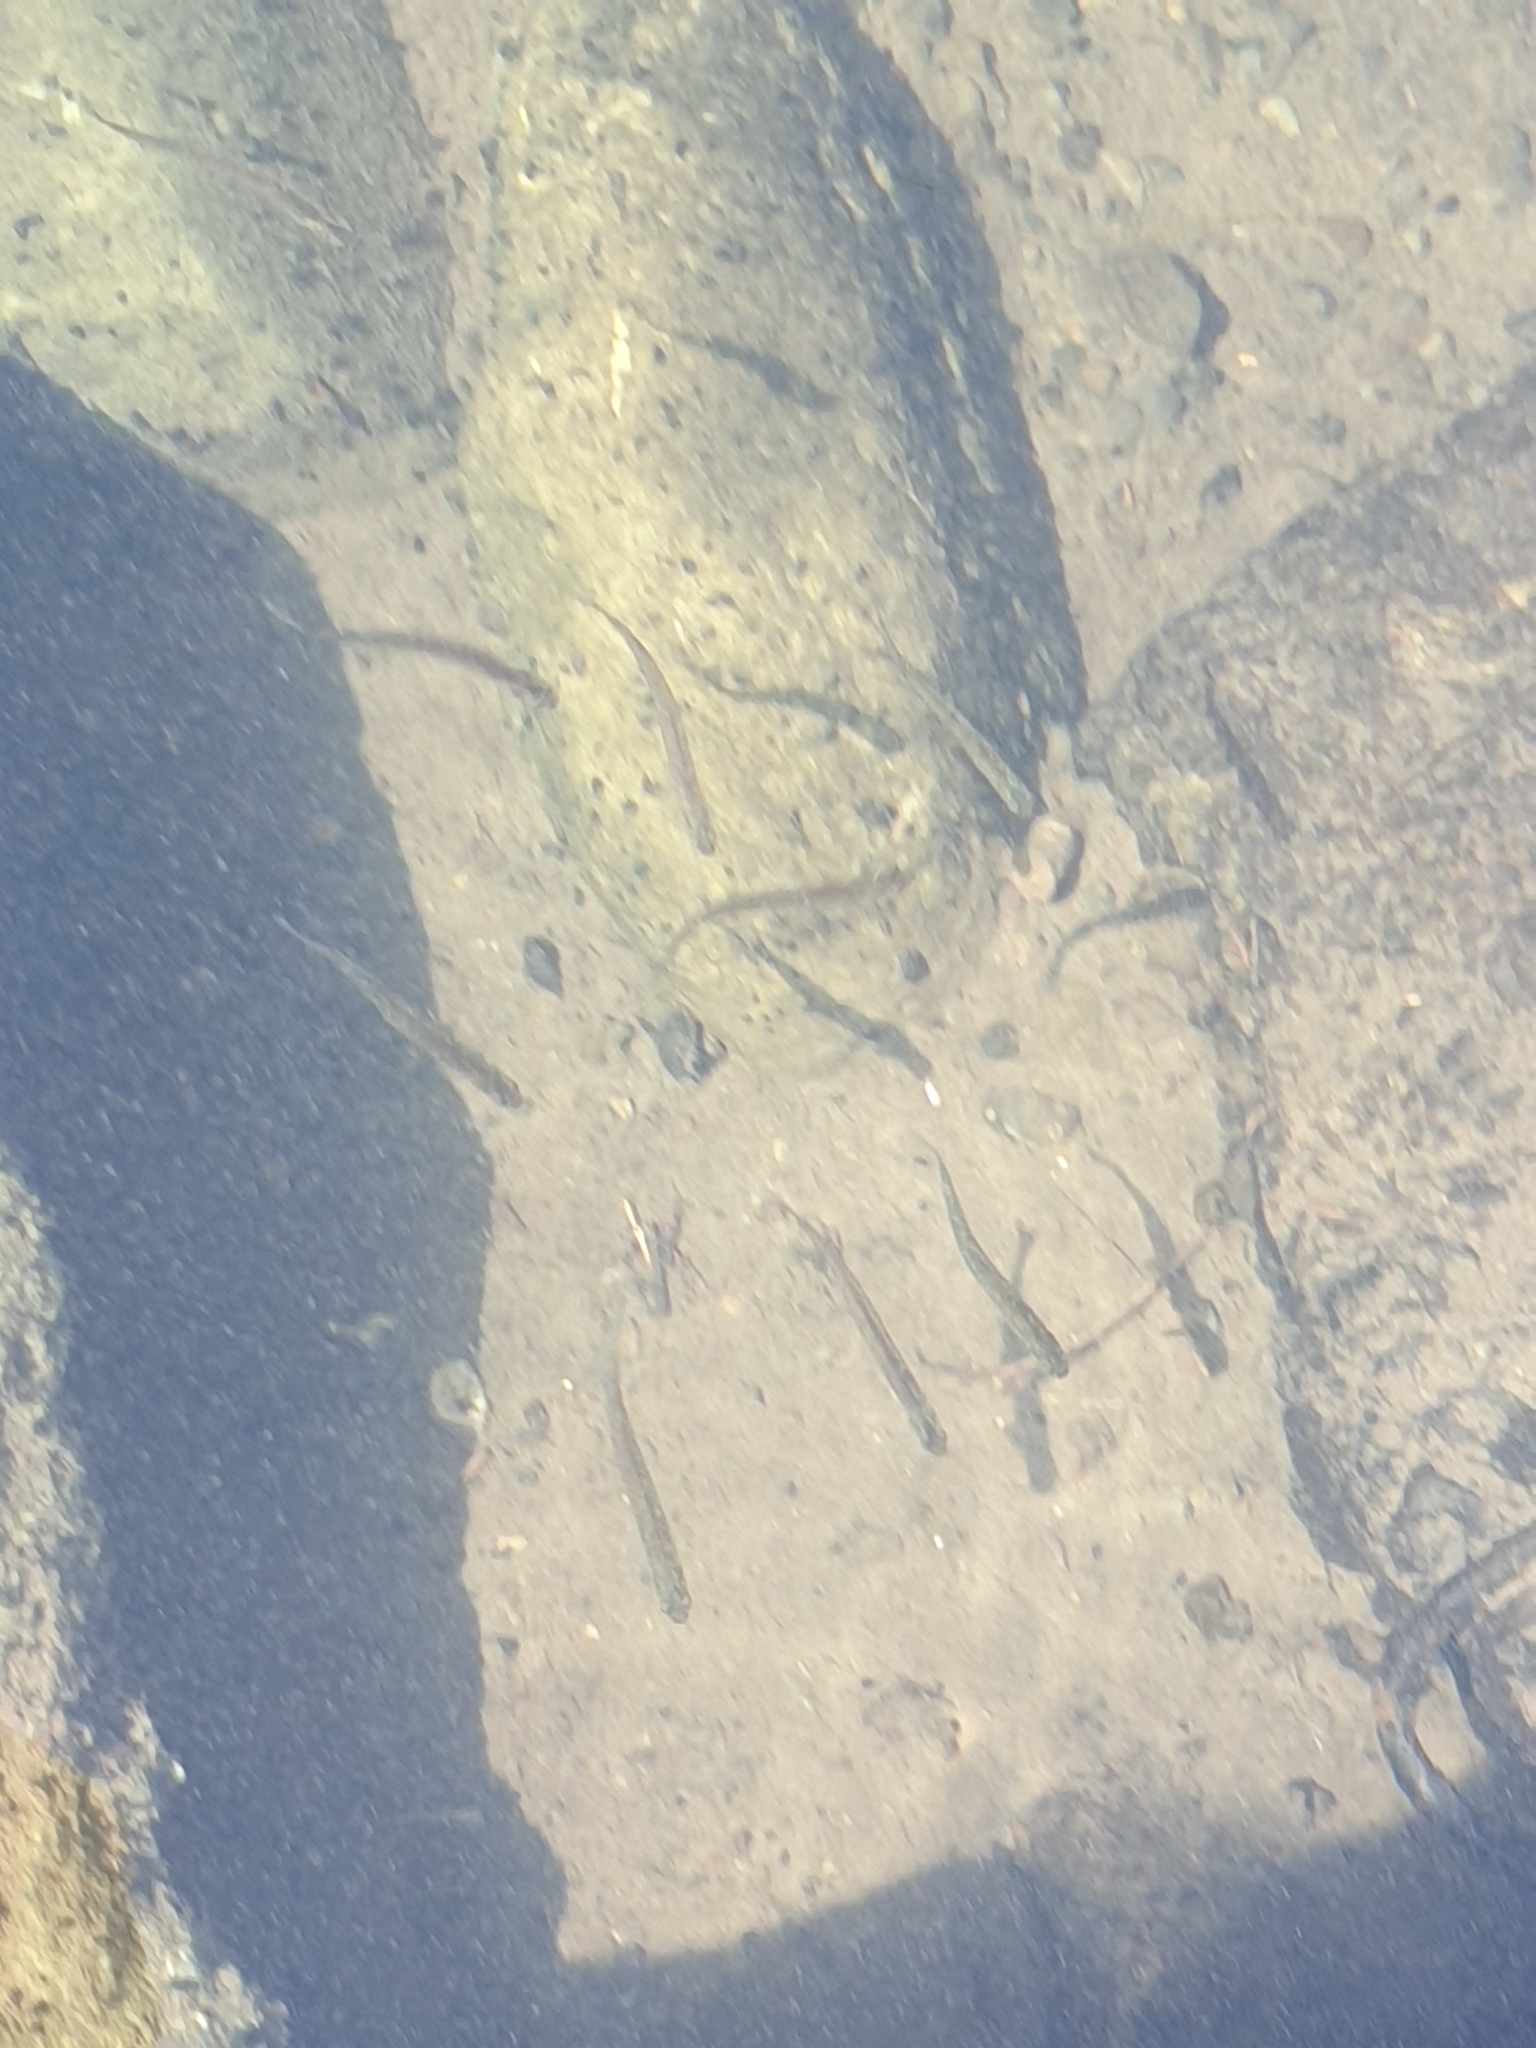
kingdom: Animalia
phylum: Chordata
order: Osmeriformes
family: Galaxiidae
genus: Galaxias
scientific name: Galaxias maculatus
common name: Common galaxias
